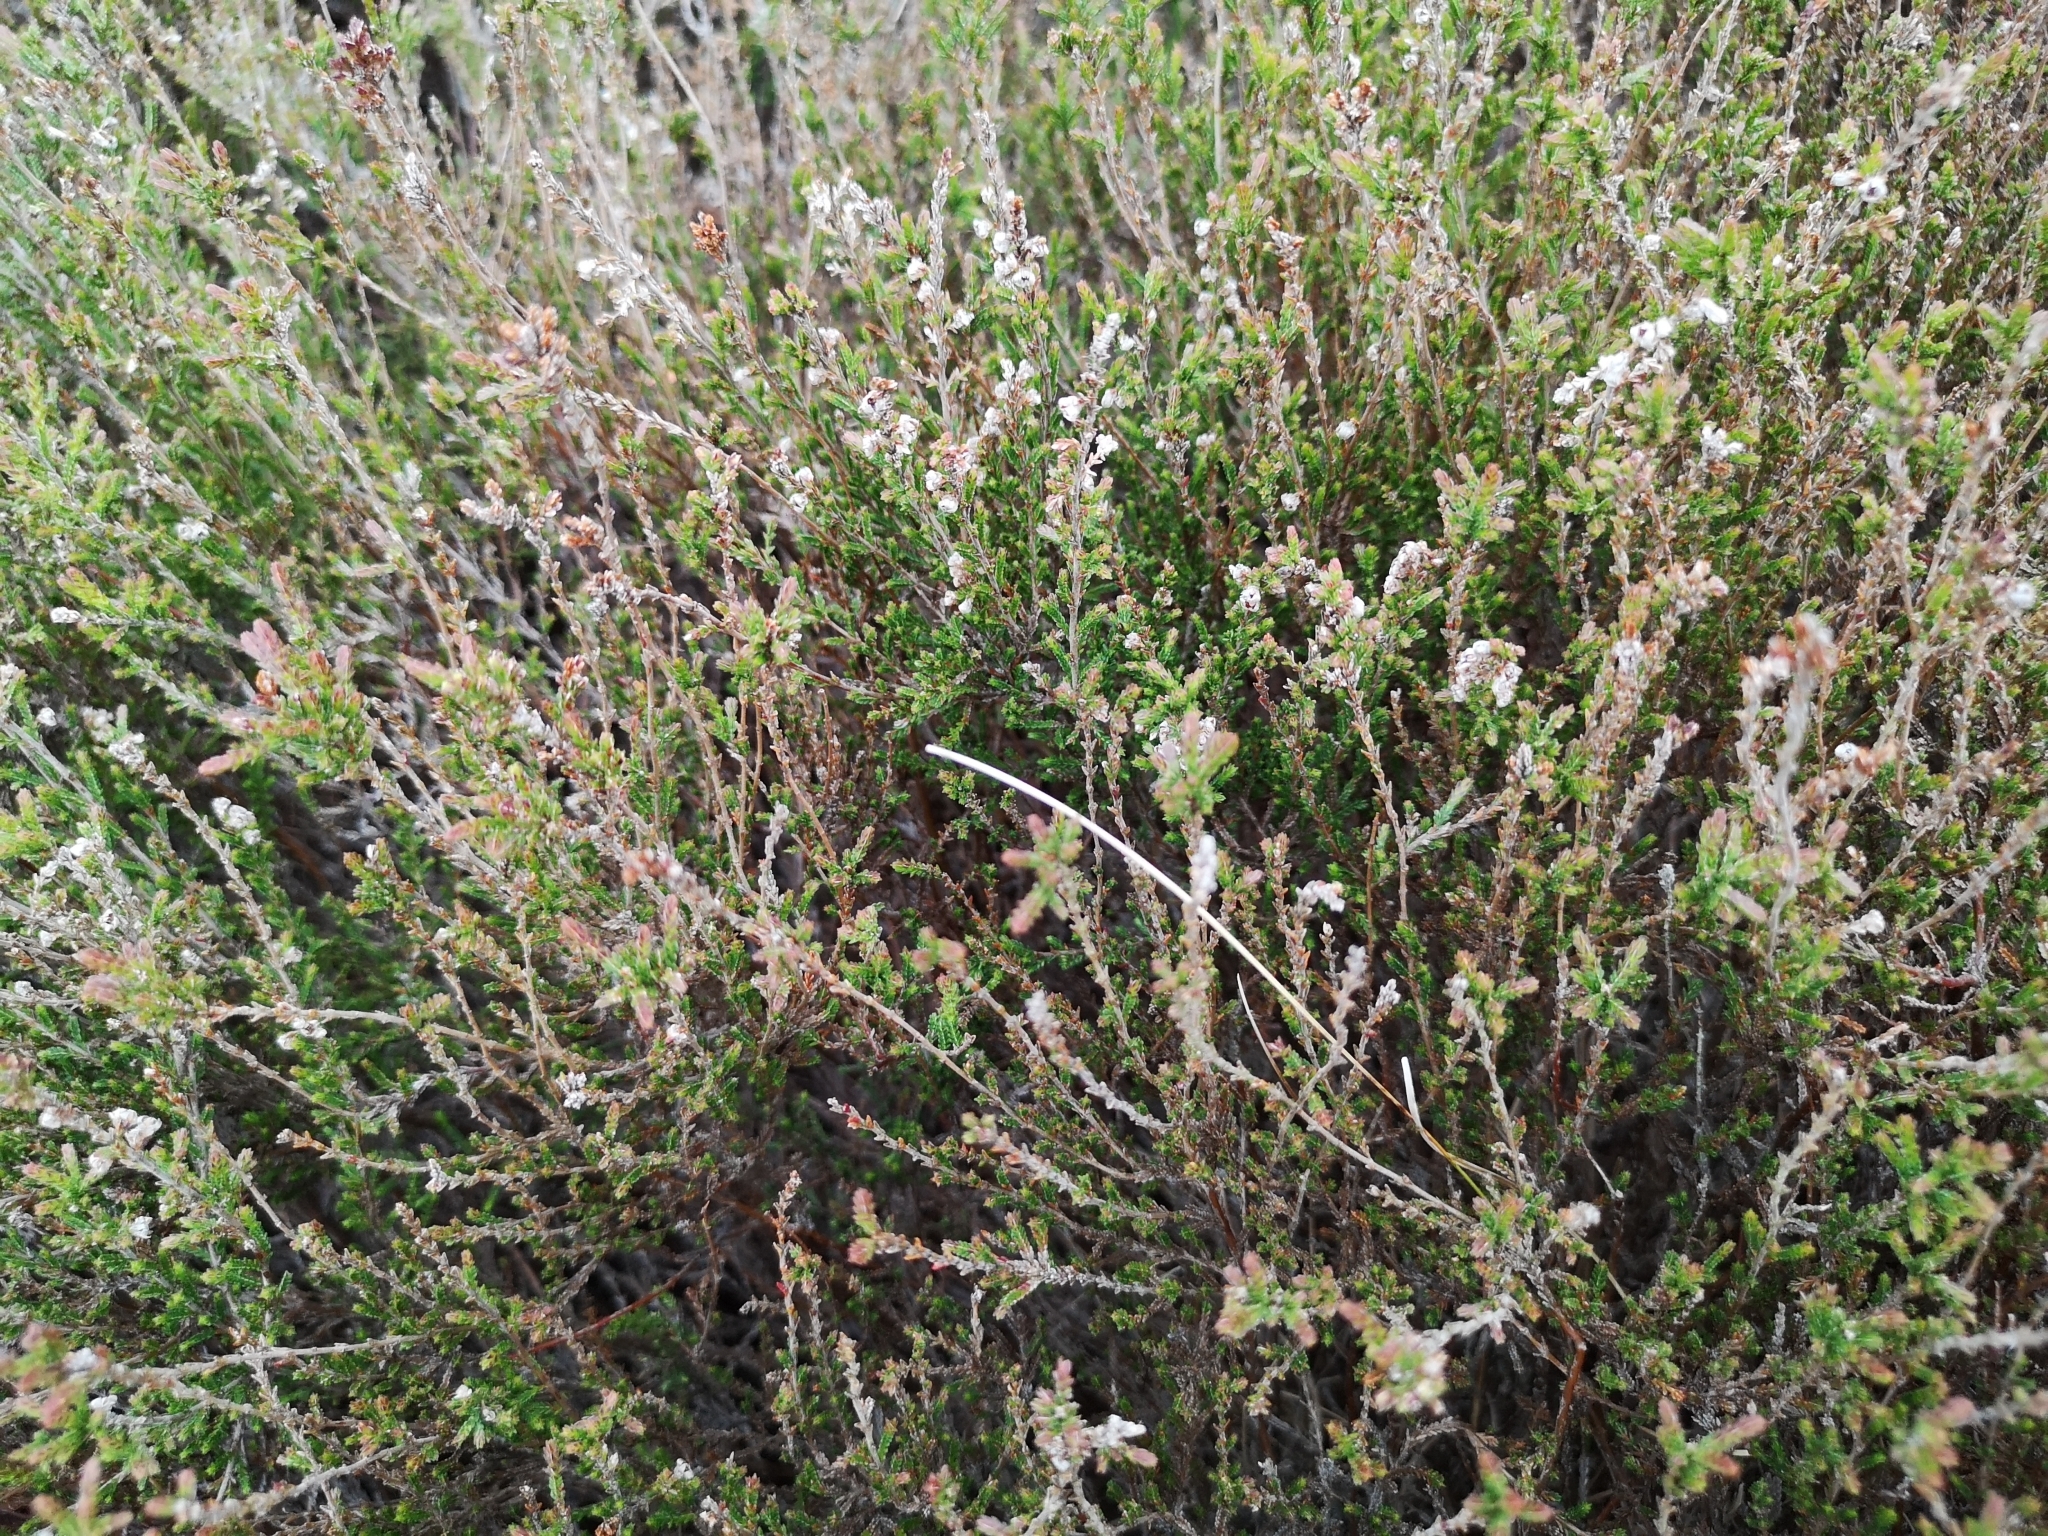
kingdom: Plantae
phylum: Tracheophyta
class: Magnoliopsida
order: Ericales
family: Ericaceae
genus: Calluna
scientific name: Calluna vulgaris
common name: Heather
